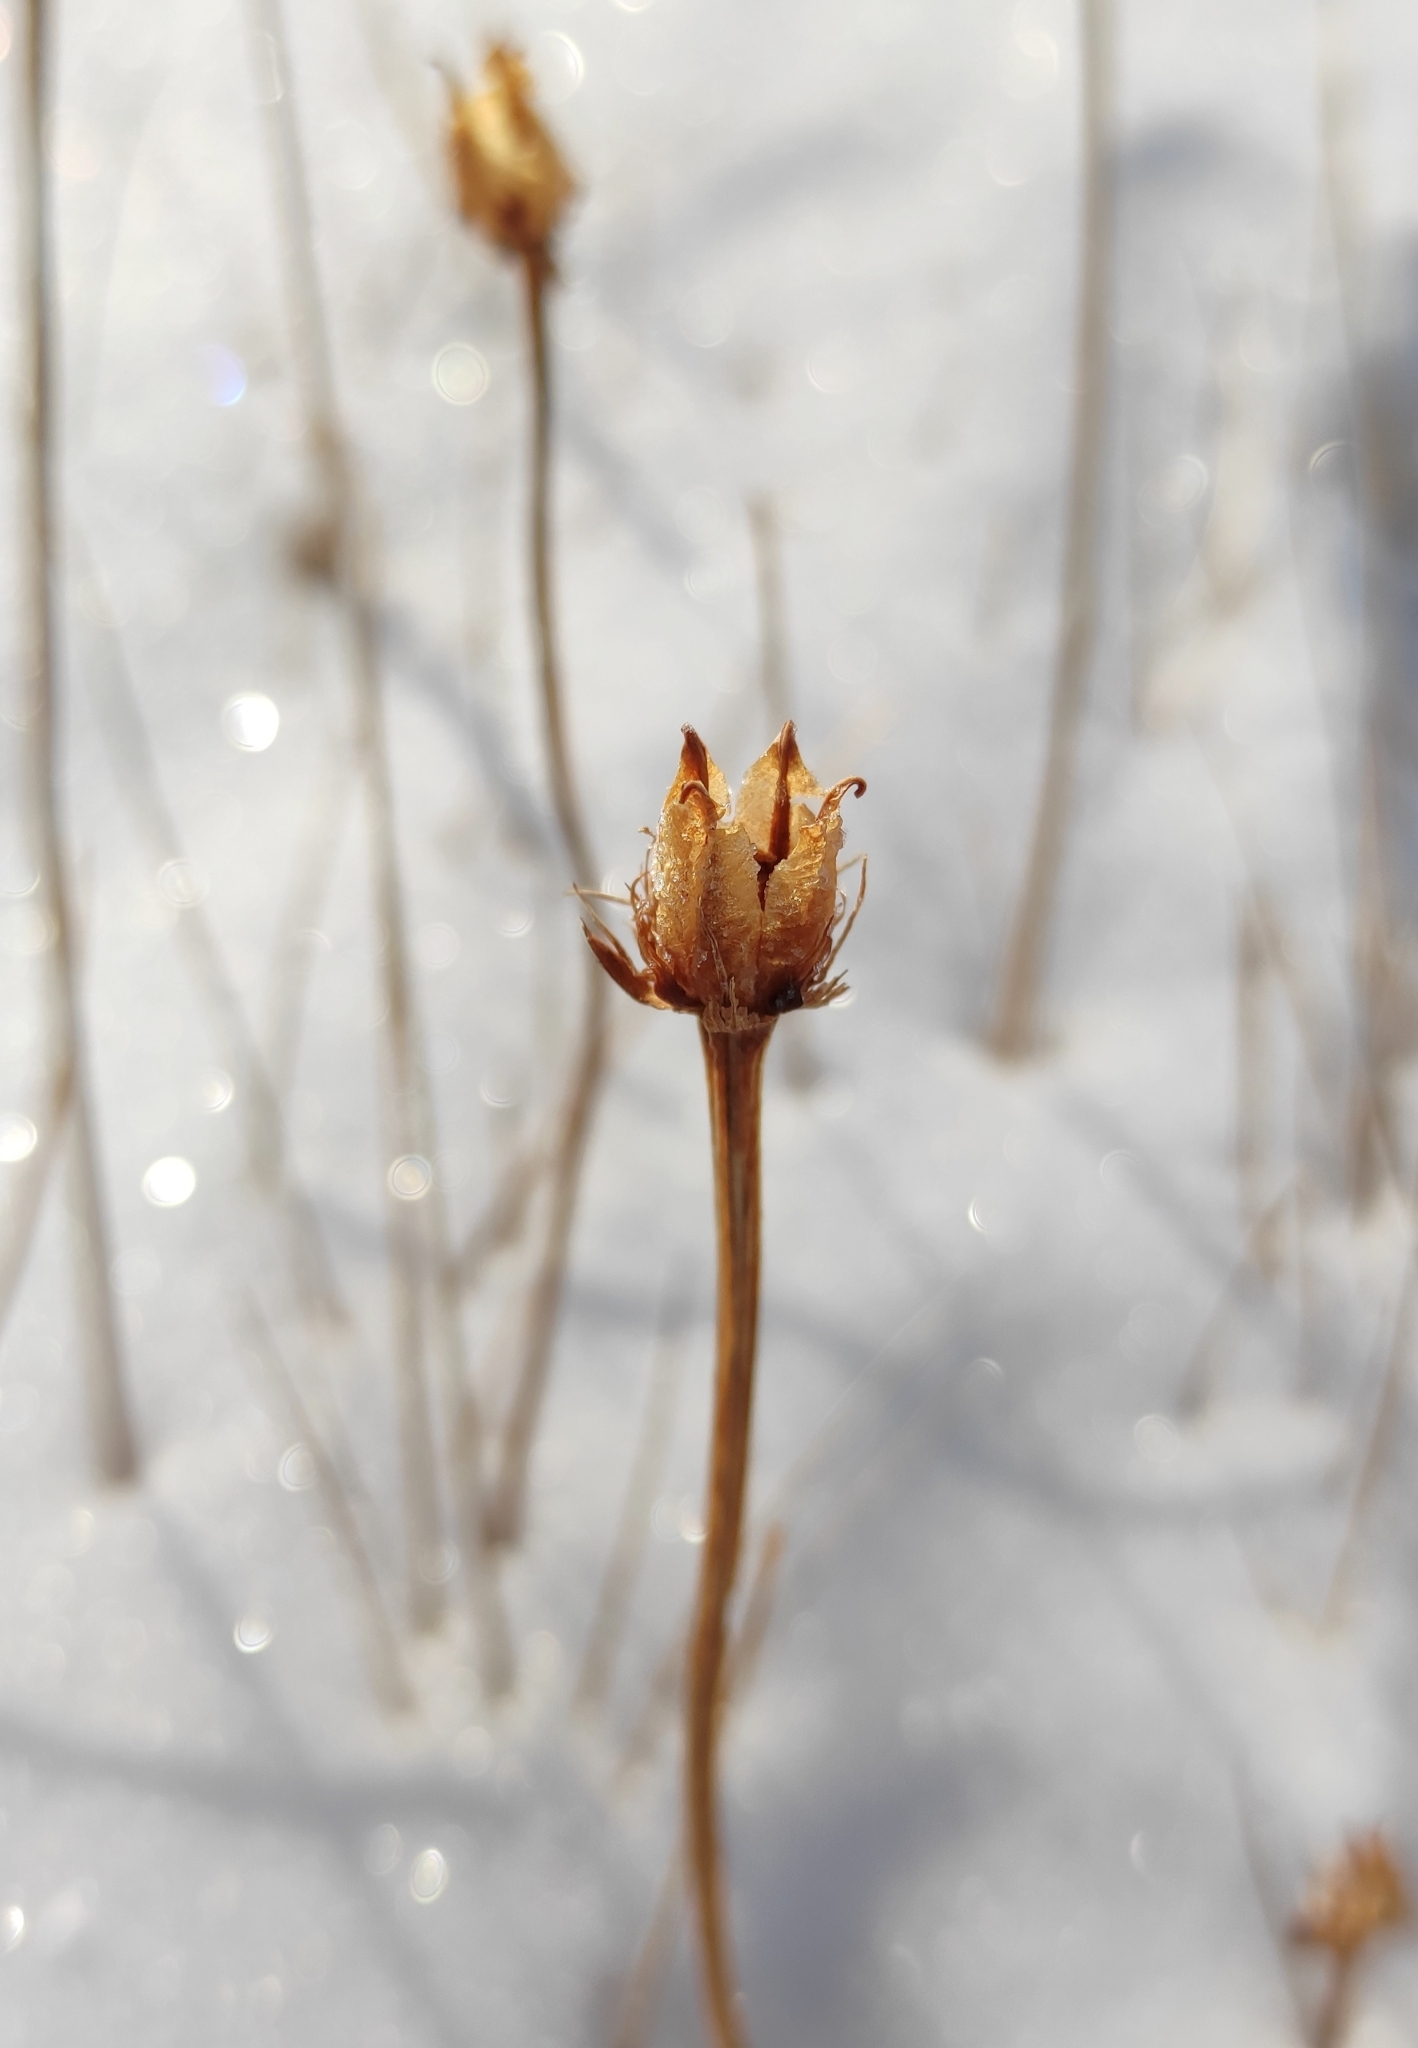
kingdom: Plantae
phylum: Tracheophyta
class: Magnoliopsida
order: Celastrales
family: Parnassiaceae
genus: Parnassia
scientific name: Parnassia palustris
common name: Grass-of-parnassus
